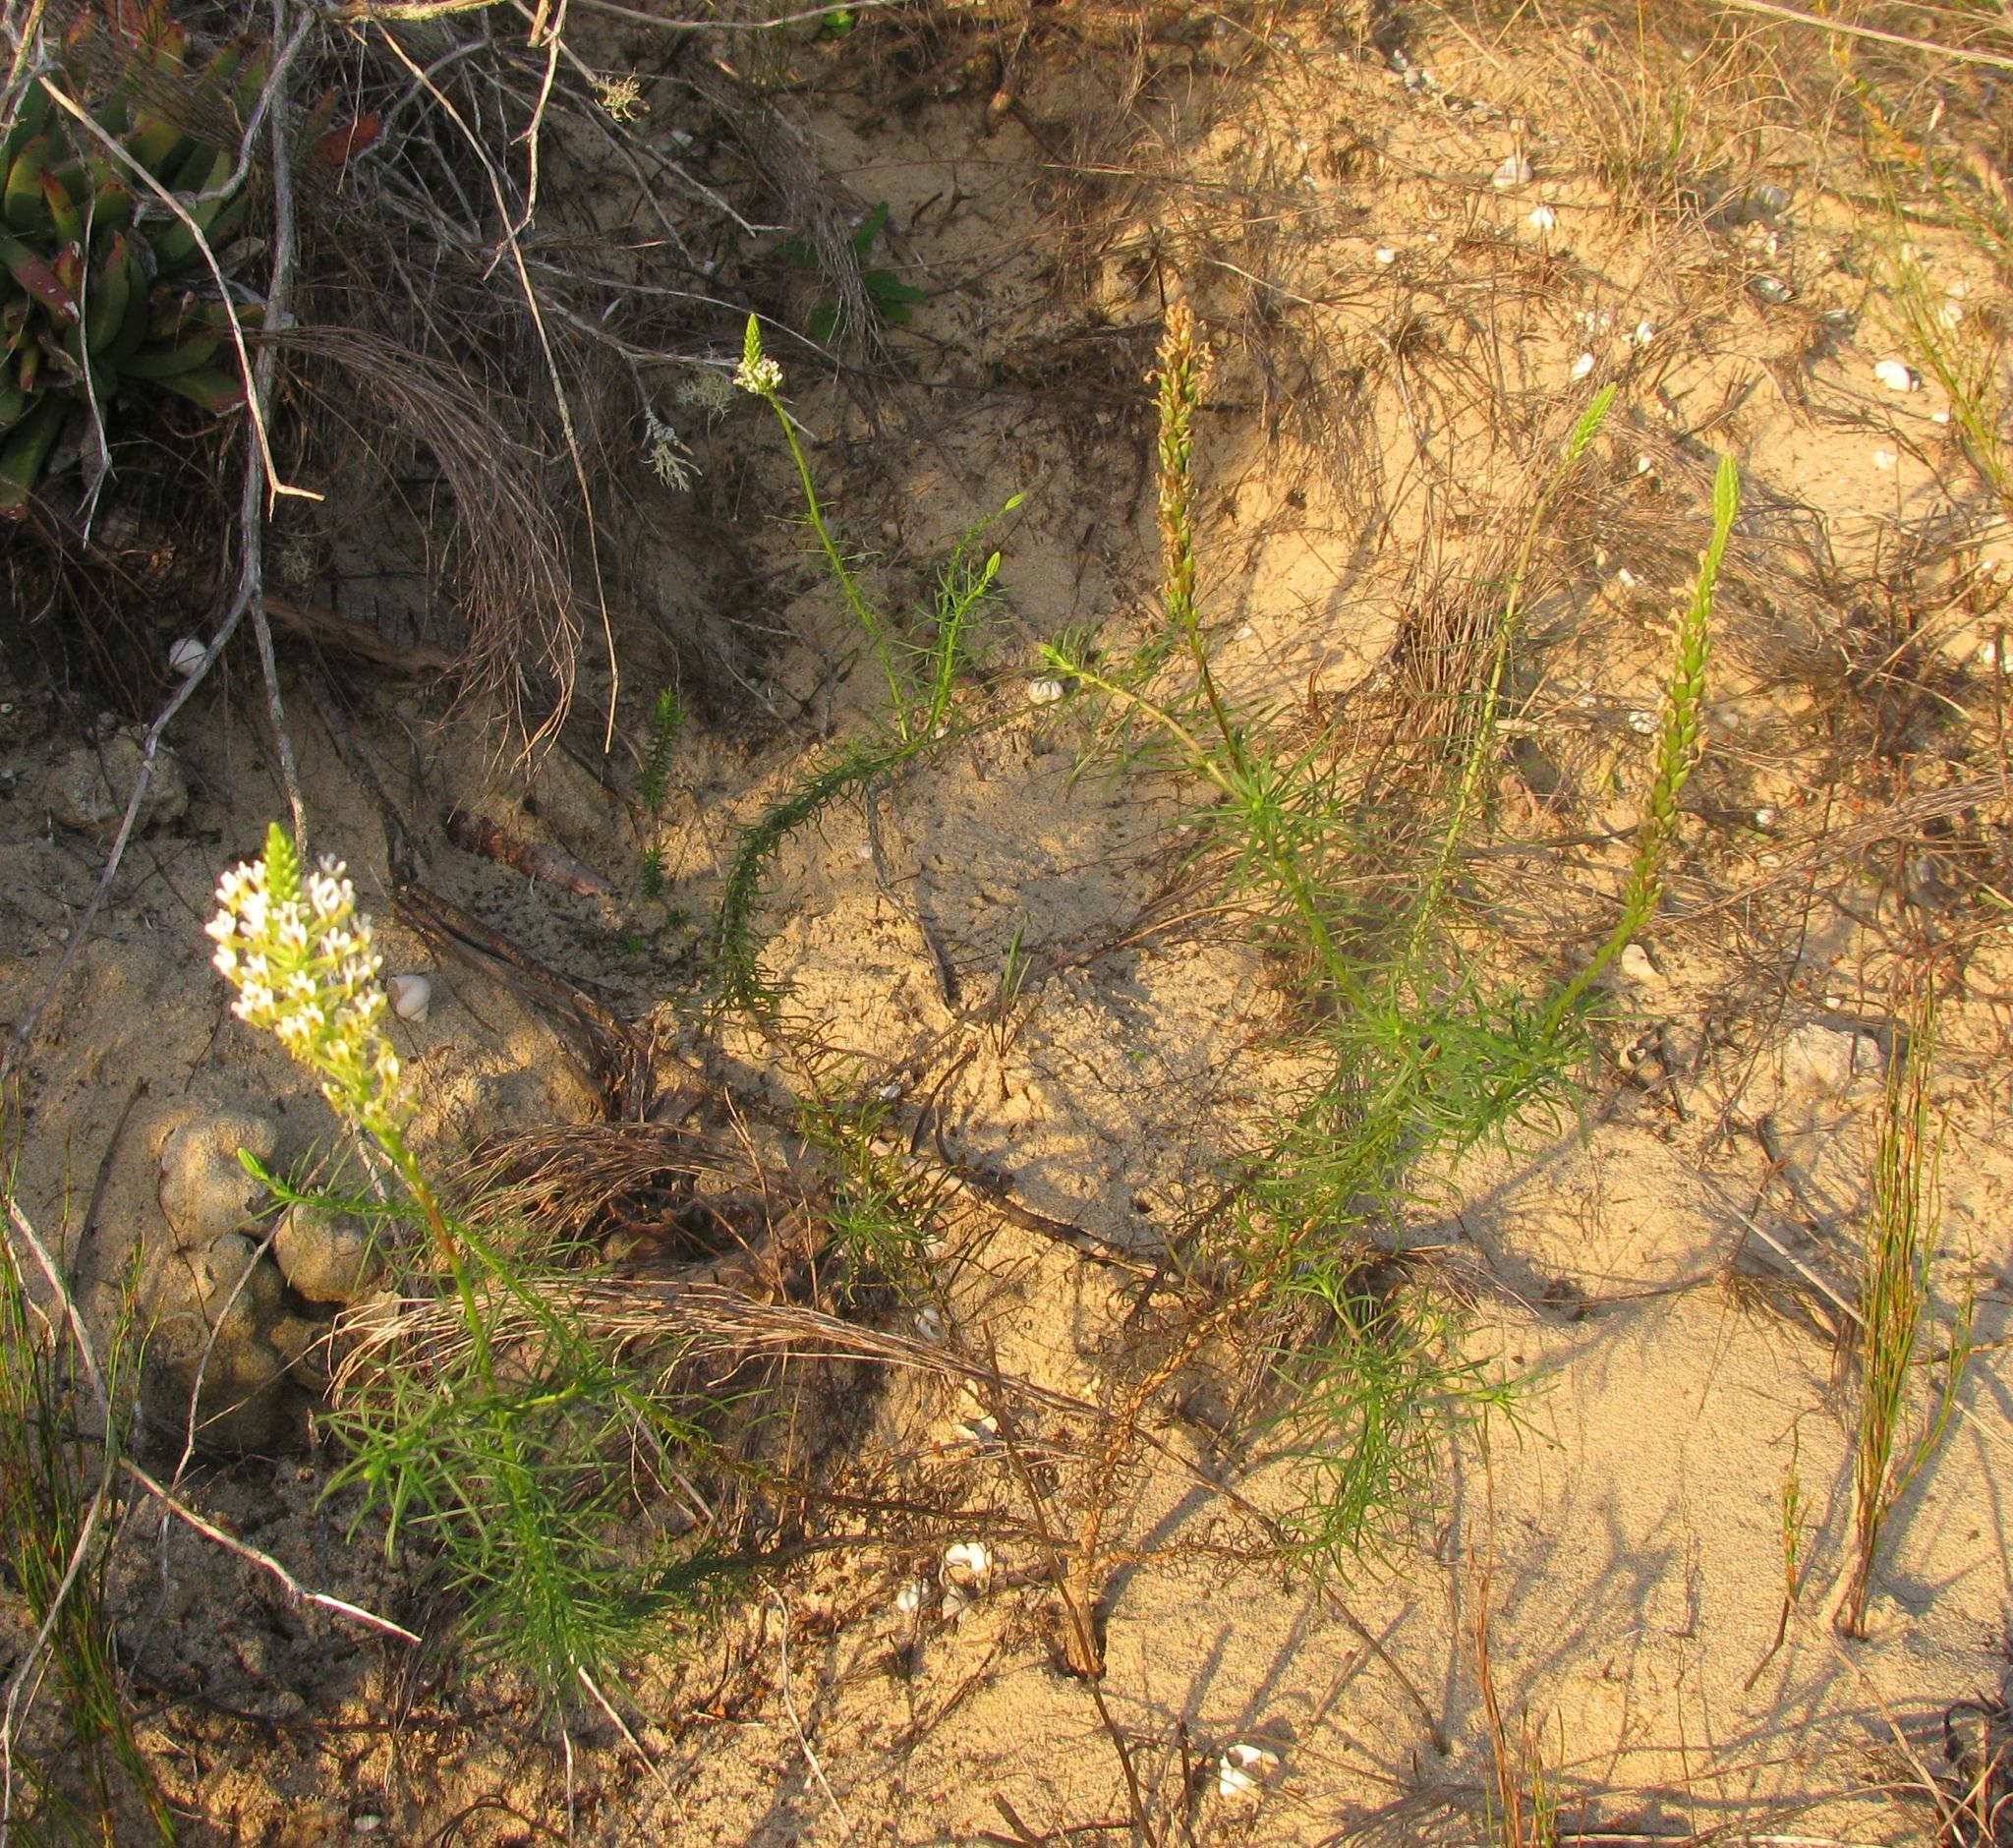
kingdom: Plantae
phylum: Tracheophyta
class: Magnoliopsida
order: Lamiales
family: Scrophulariaceae
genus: Hebenstretia
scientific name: Hebenstretia integrifolia
